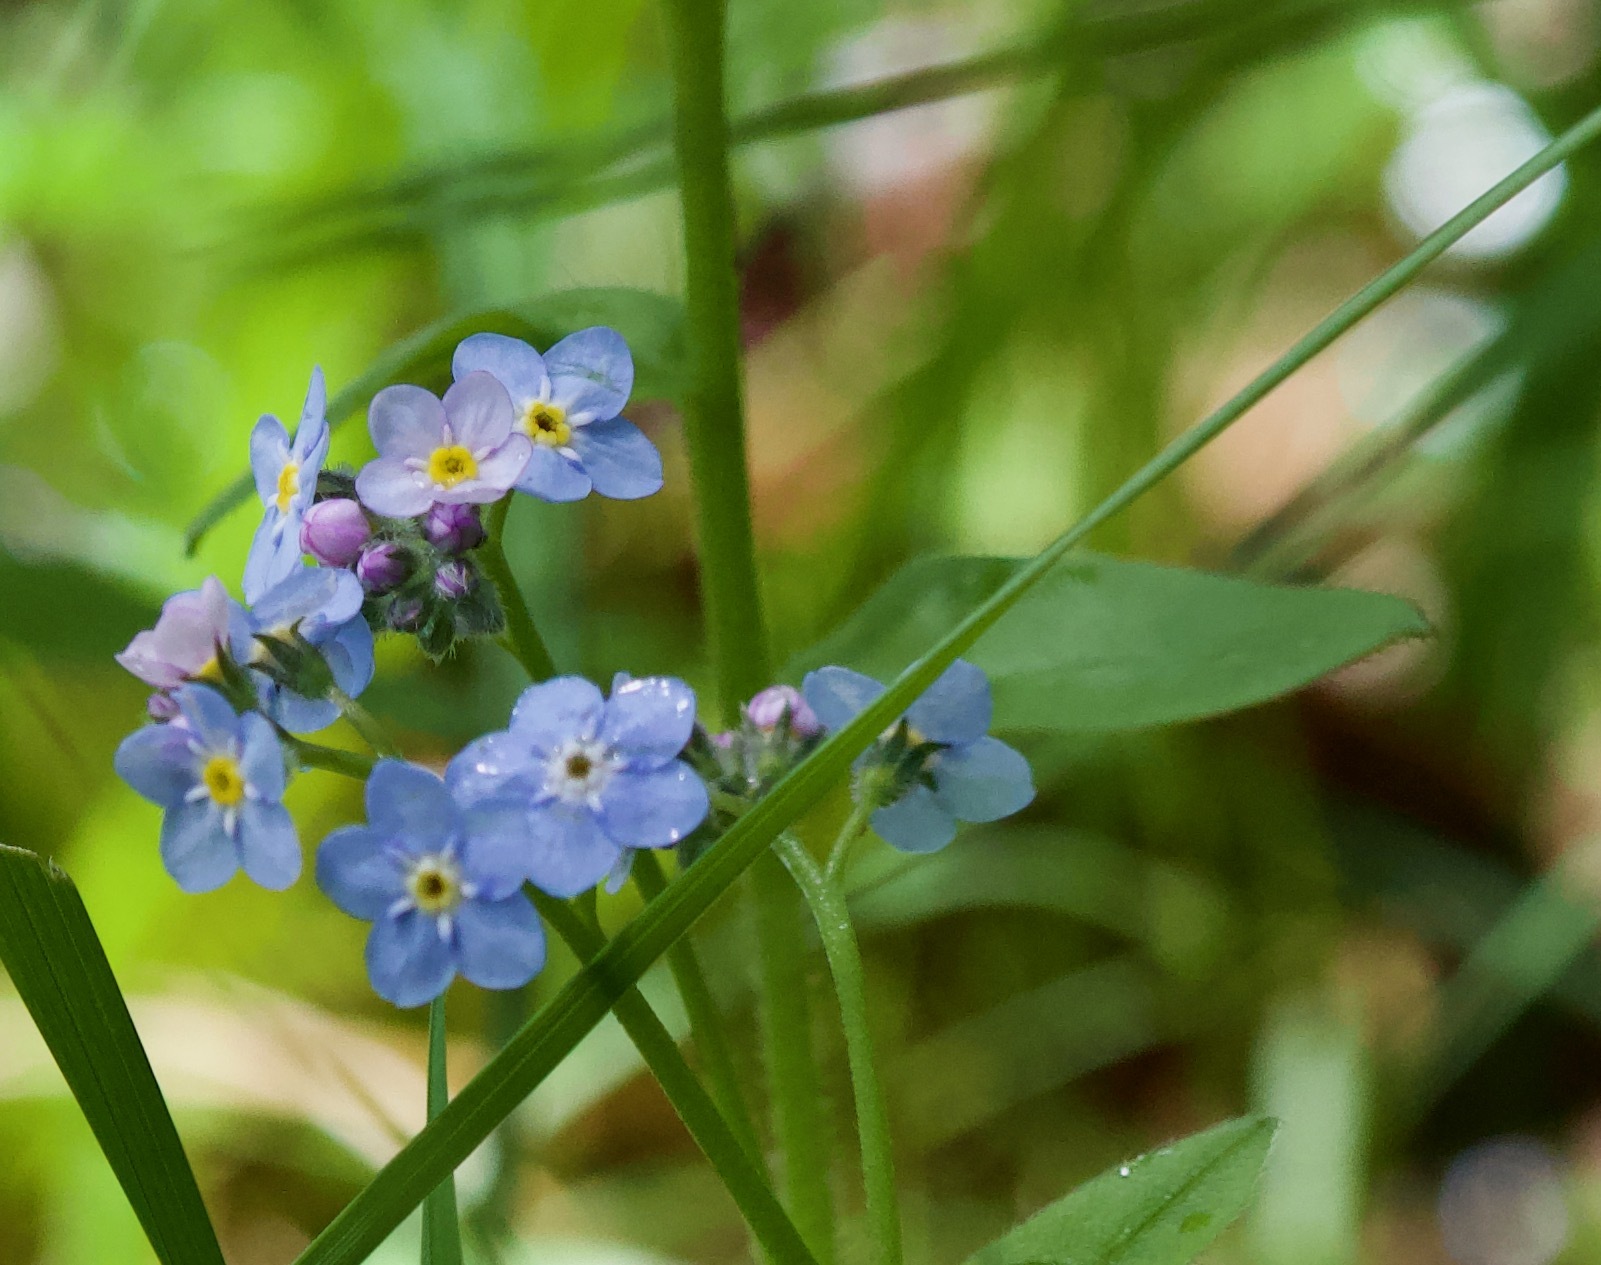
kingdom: Plantae
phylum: Tracheophyta
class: Magnoliopsida
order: Boraginales
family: Boraginaceae
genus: Myosotis
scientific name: Myosotis sylvatica
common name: Wood forget-me-not
